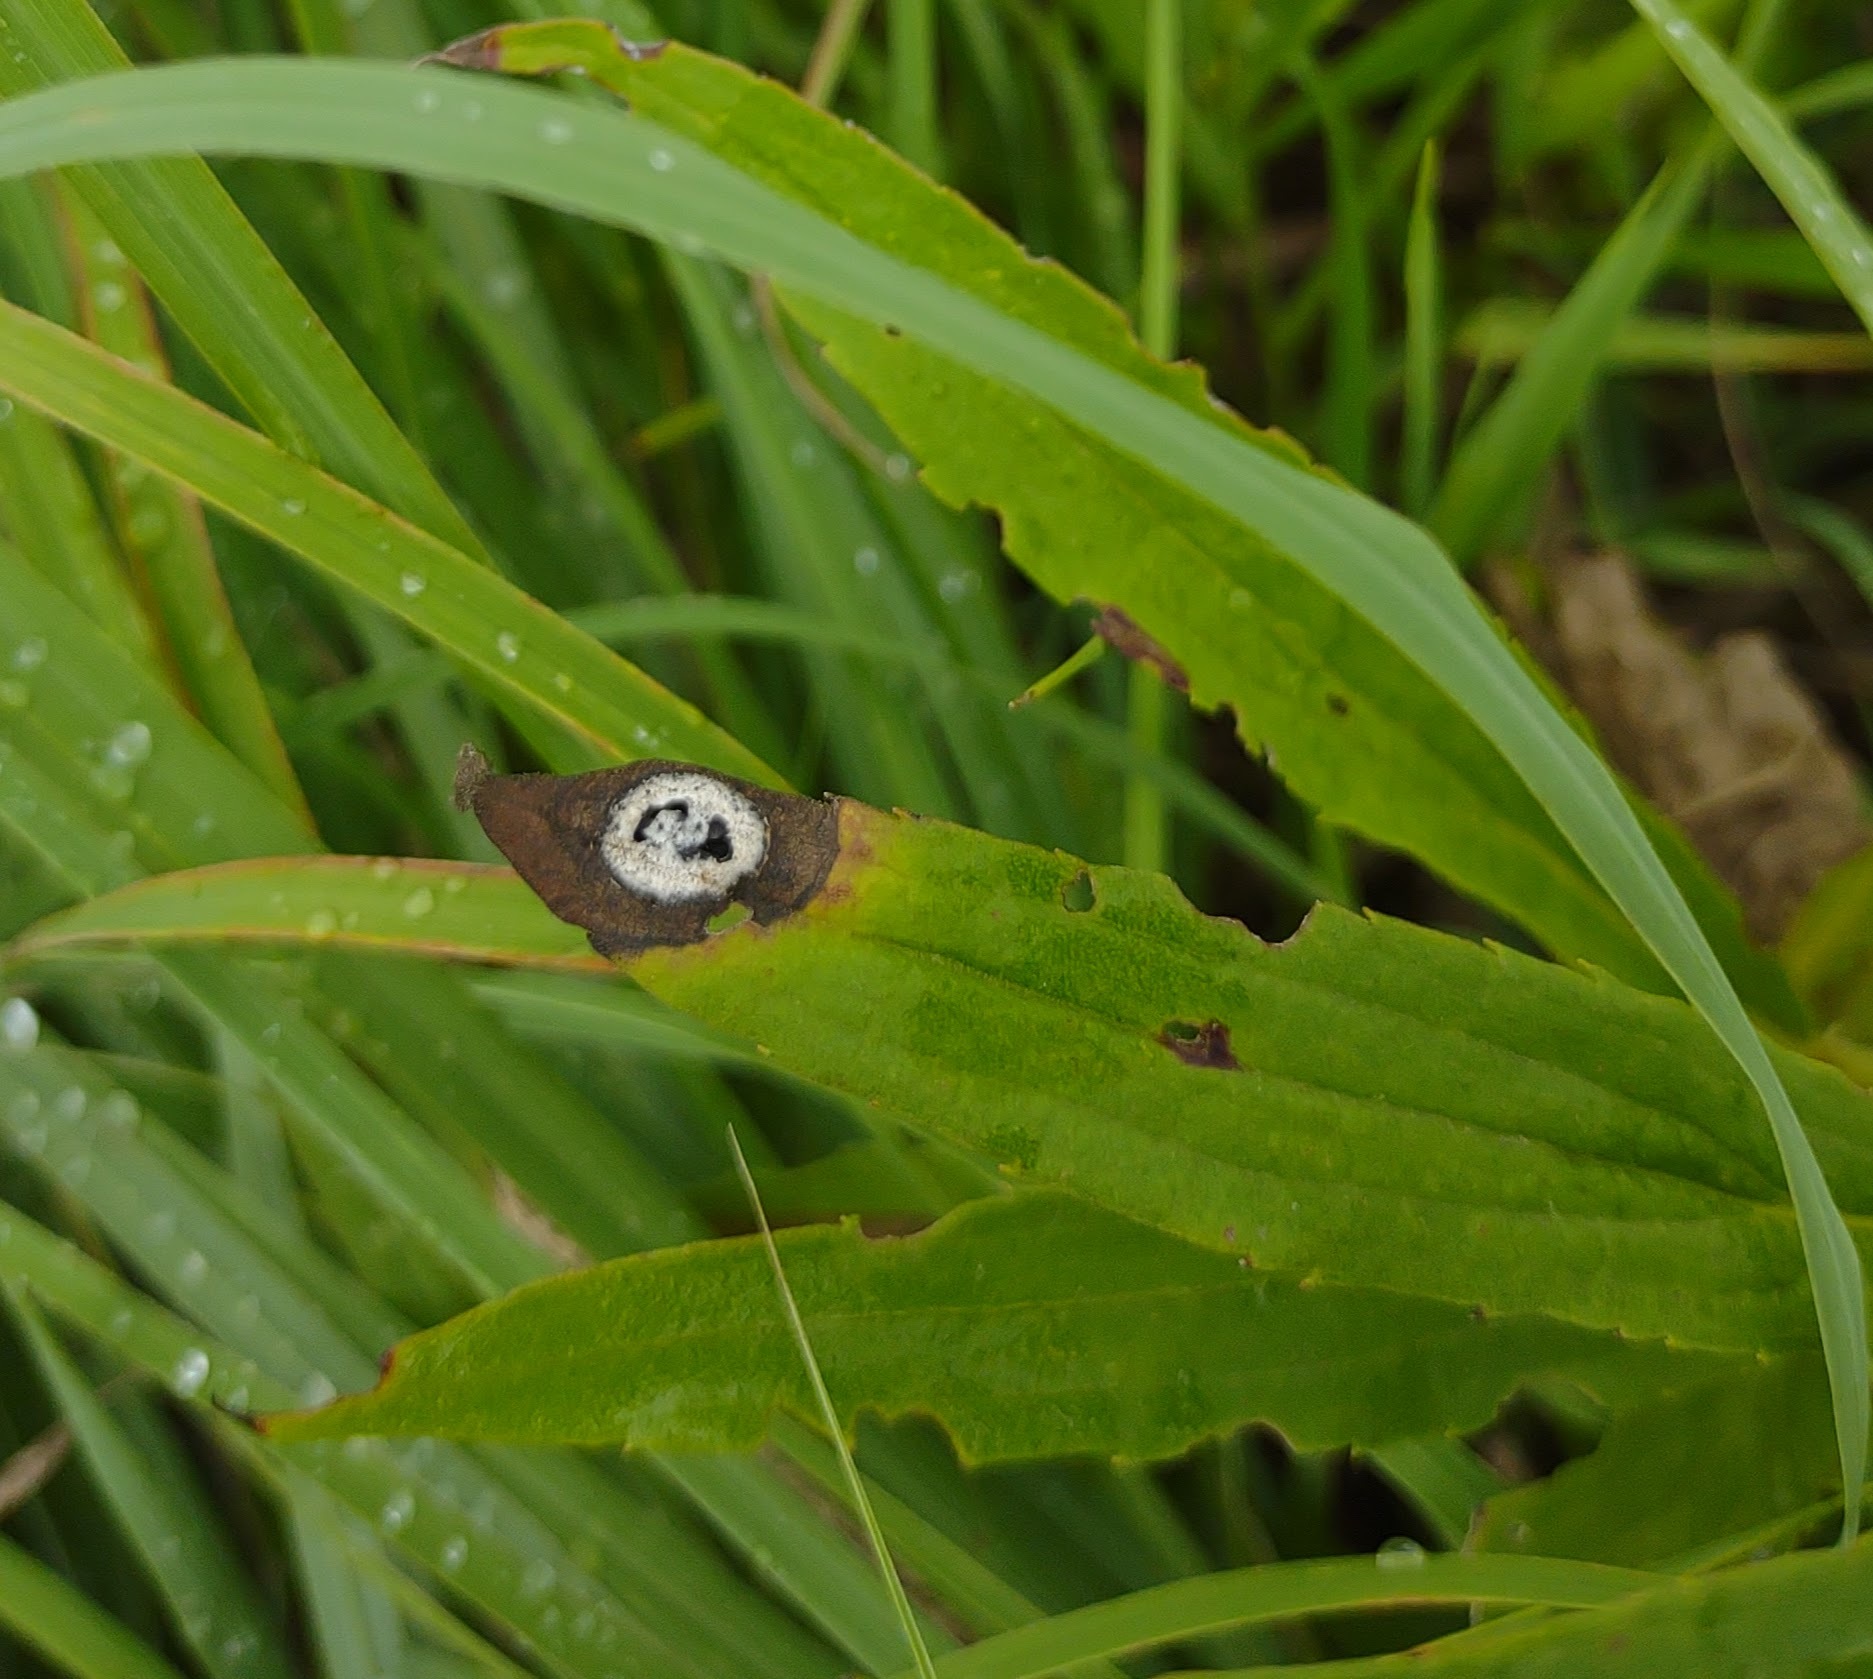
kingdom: Animalia
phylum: Arthropoda
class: Insecta
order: Diptera
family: Cecidomyiidae
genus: Asteromyia
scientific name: Asteromyia carbonifera
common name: Carbonifera goldenrod gall midge
